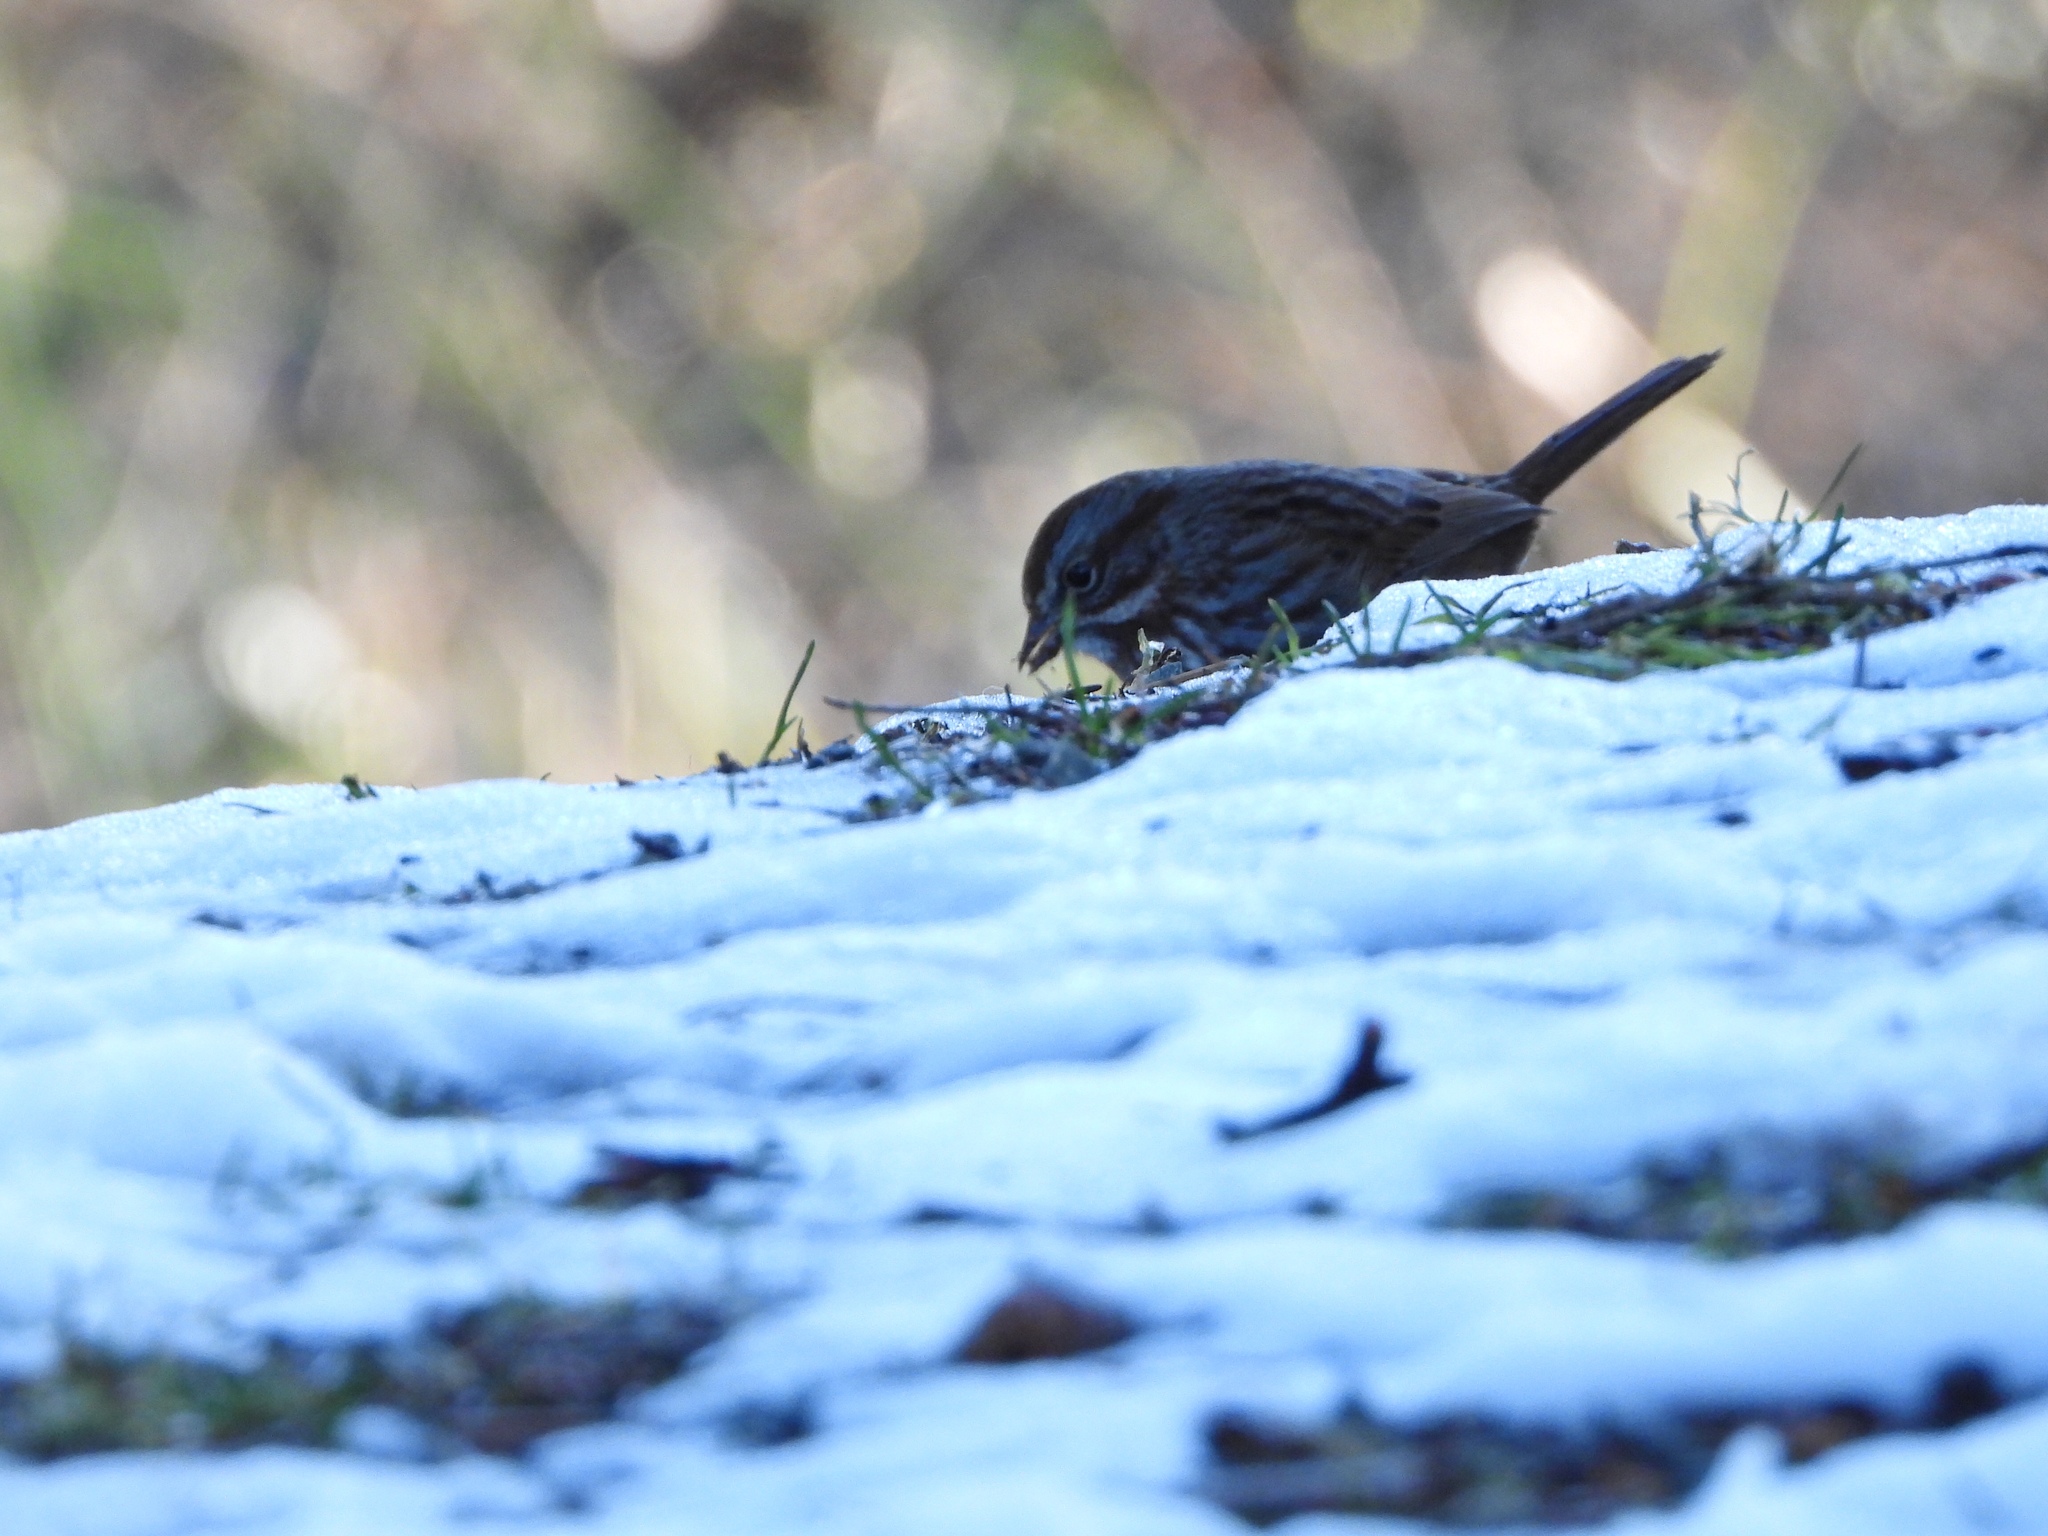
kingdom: Animalia
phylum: Chordata
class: Aves
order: Passeriformes
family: Passerellidae
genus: Melospiza
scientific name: Melospiza melodia
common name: Song sparrow
